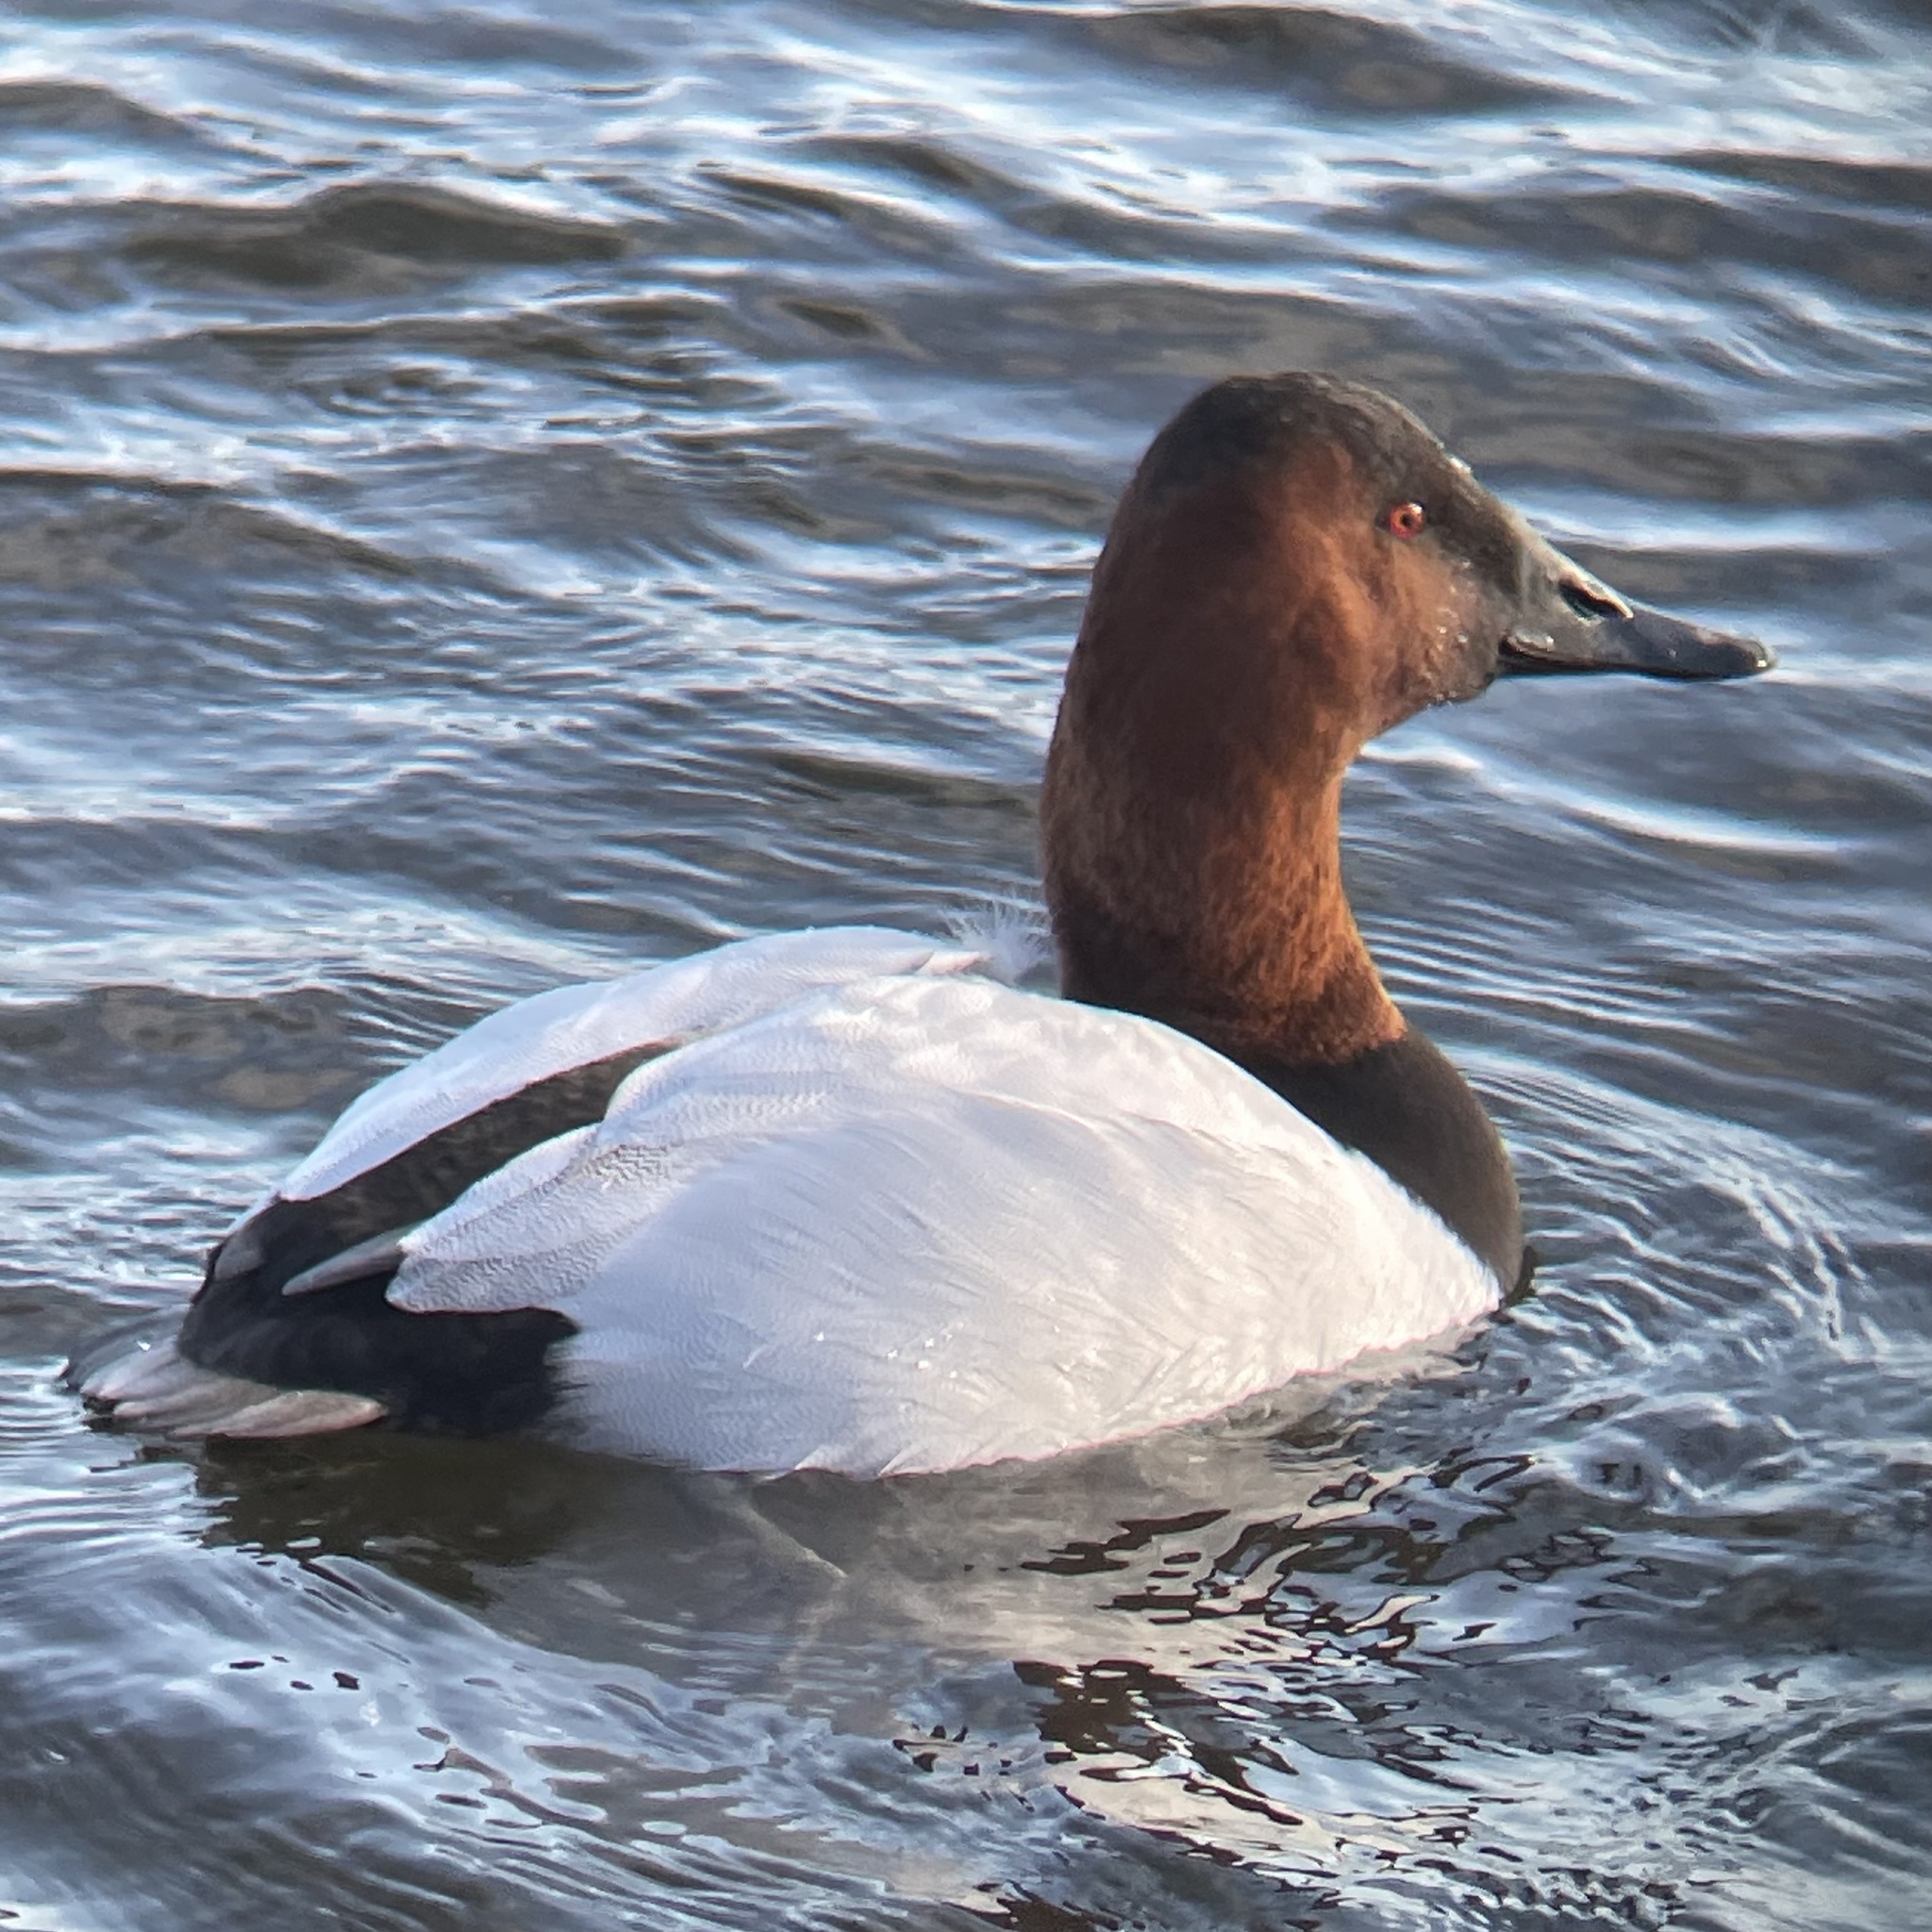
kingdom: Animalia
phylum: Chordata
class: Aves
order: Anseriformes
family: Anatidae
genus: Aythya
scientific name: Aythya valisineria
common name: Canvasback
